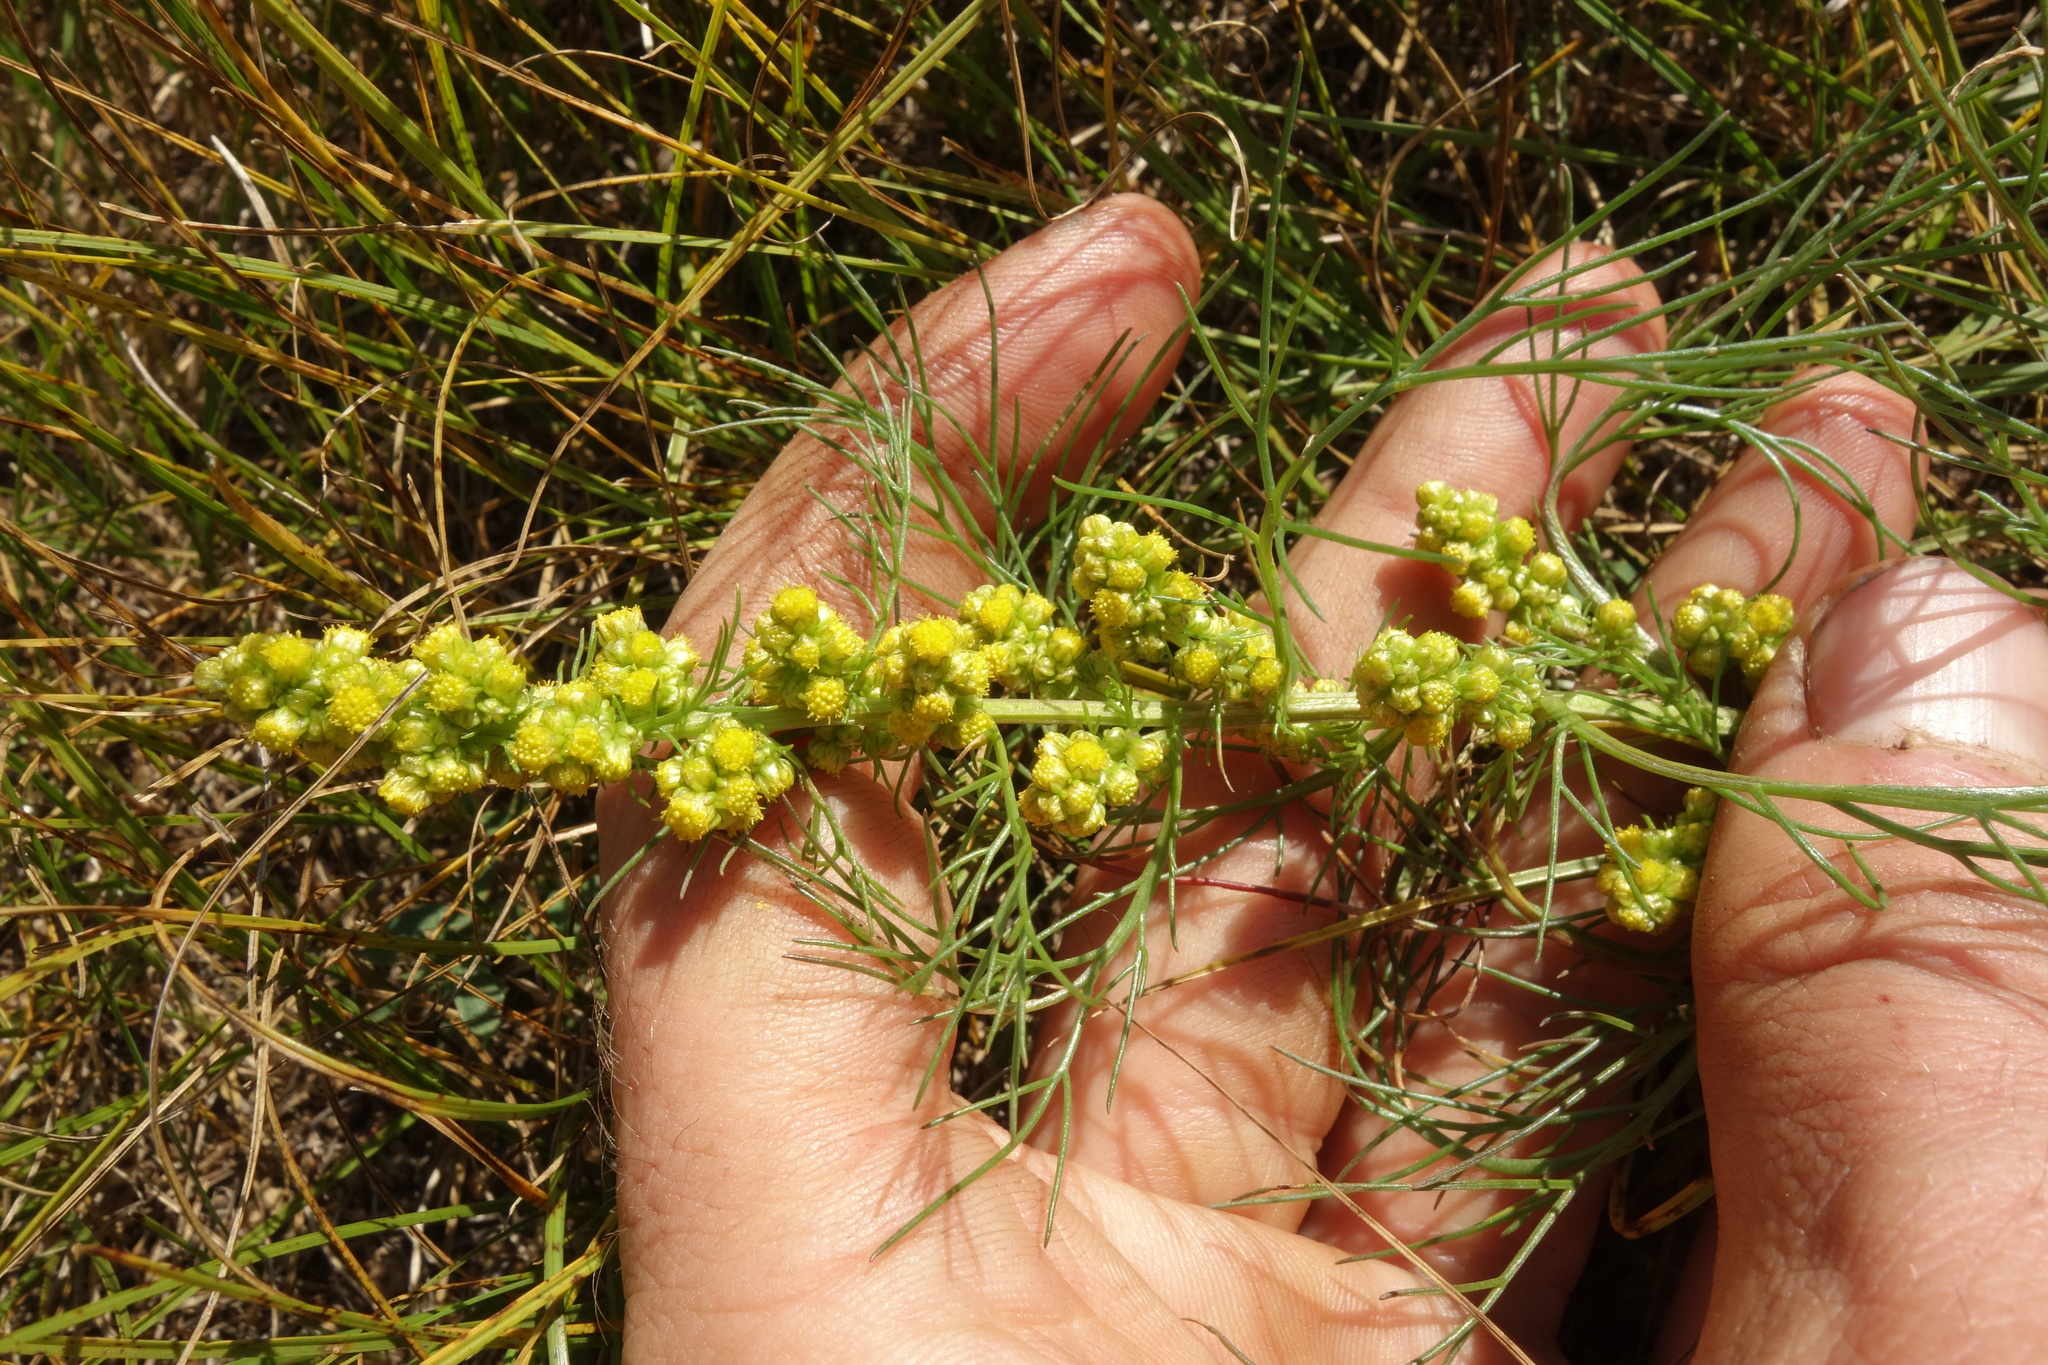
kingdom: Plantae
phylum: Tracheophyta
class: Magnoliopsida
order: Asterales
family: Asteraceae
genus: Artemisia
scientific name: Artemisia palustris
